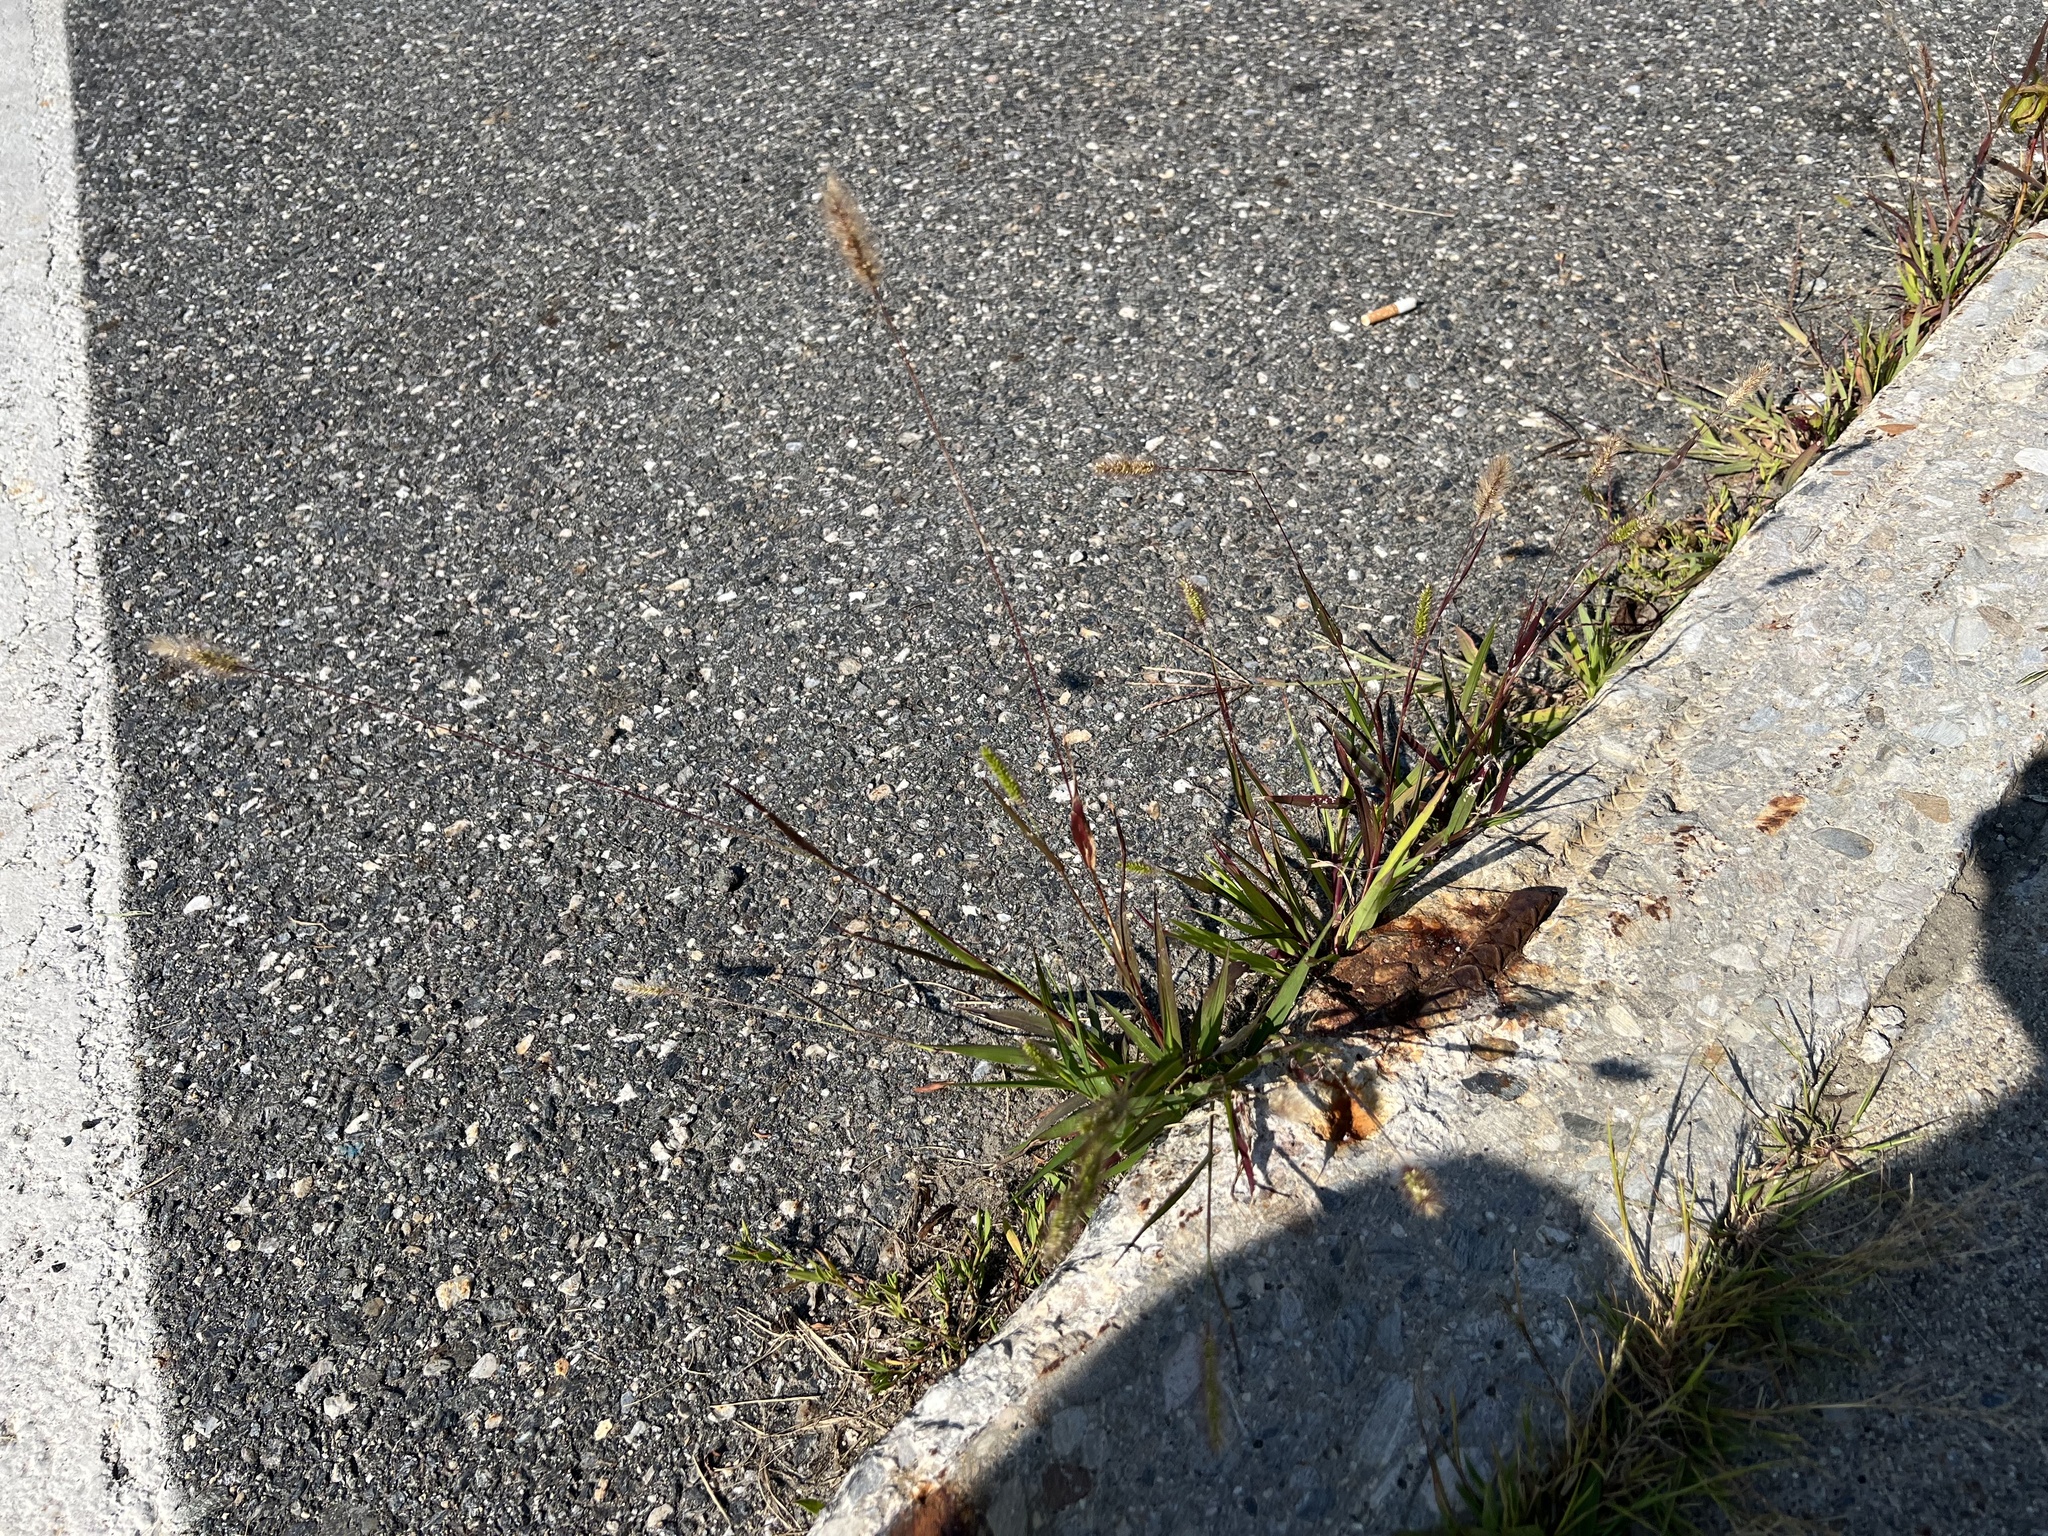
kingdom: Plantae
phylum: Tracheophyta
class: Liliopsida
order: Poales
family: Poaceae
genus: Setaria
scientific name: Setaria viridis
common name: Green bristlegrass
